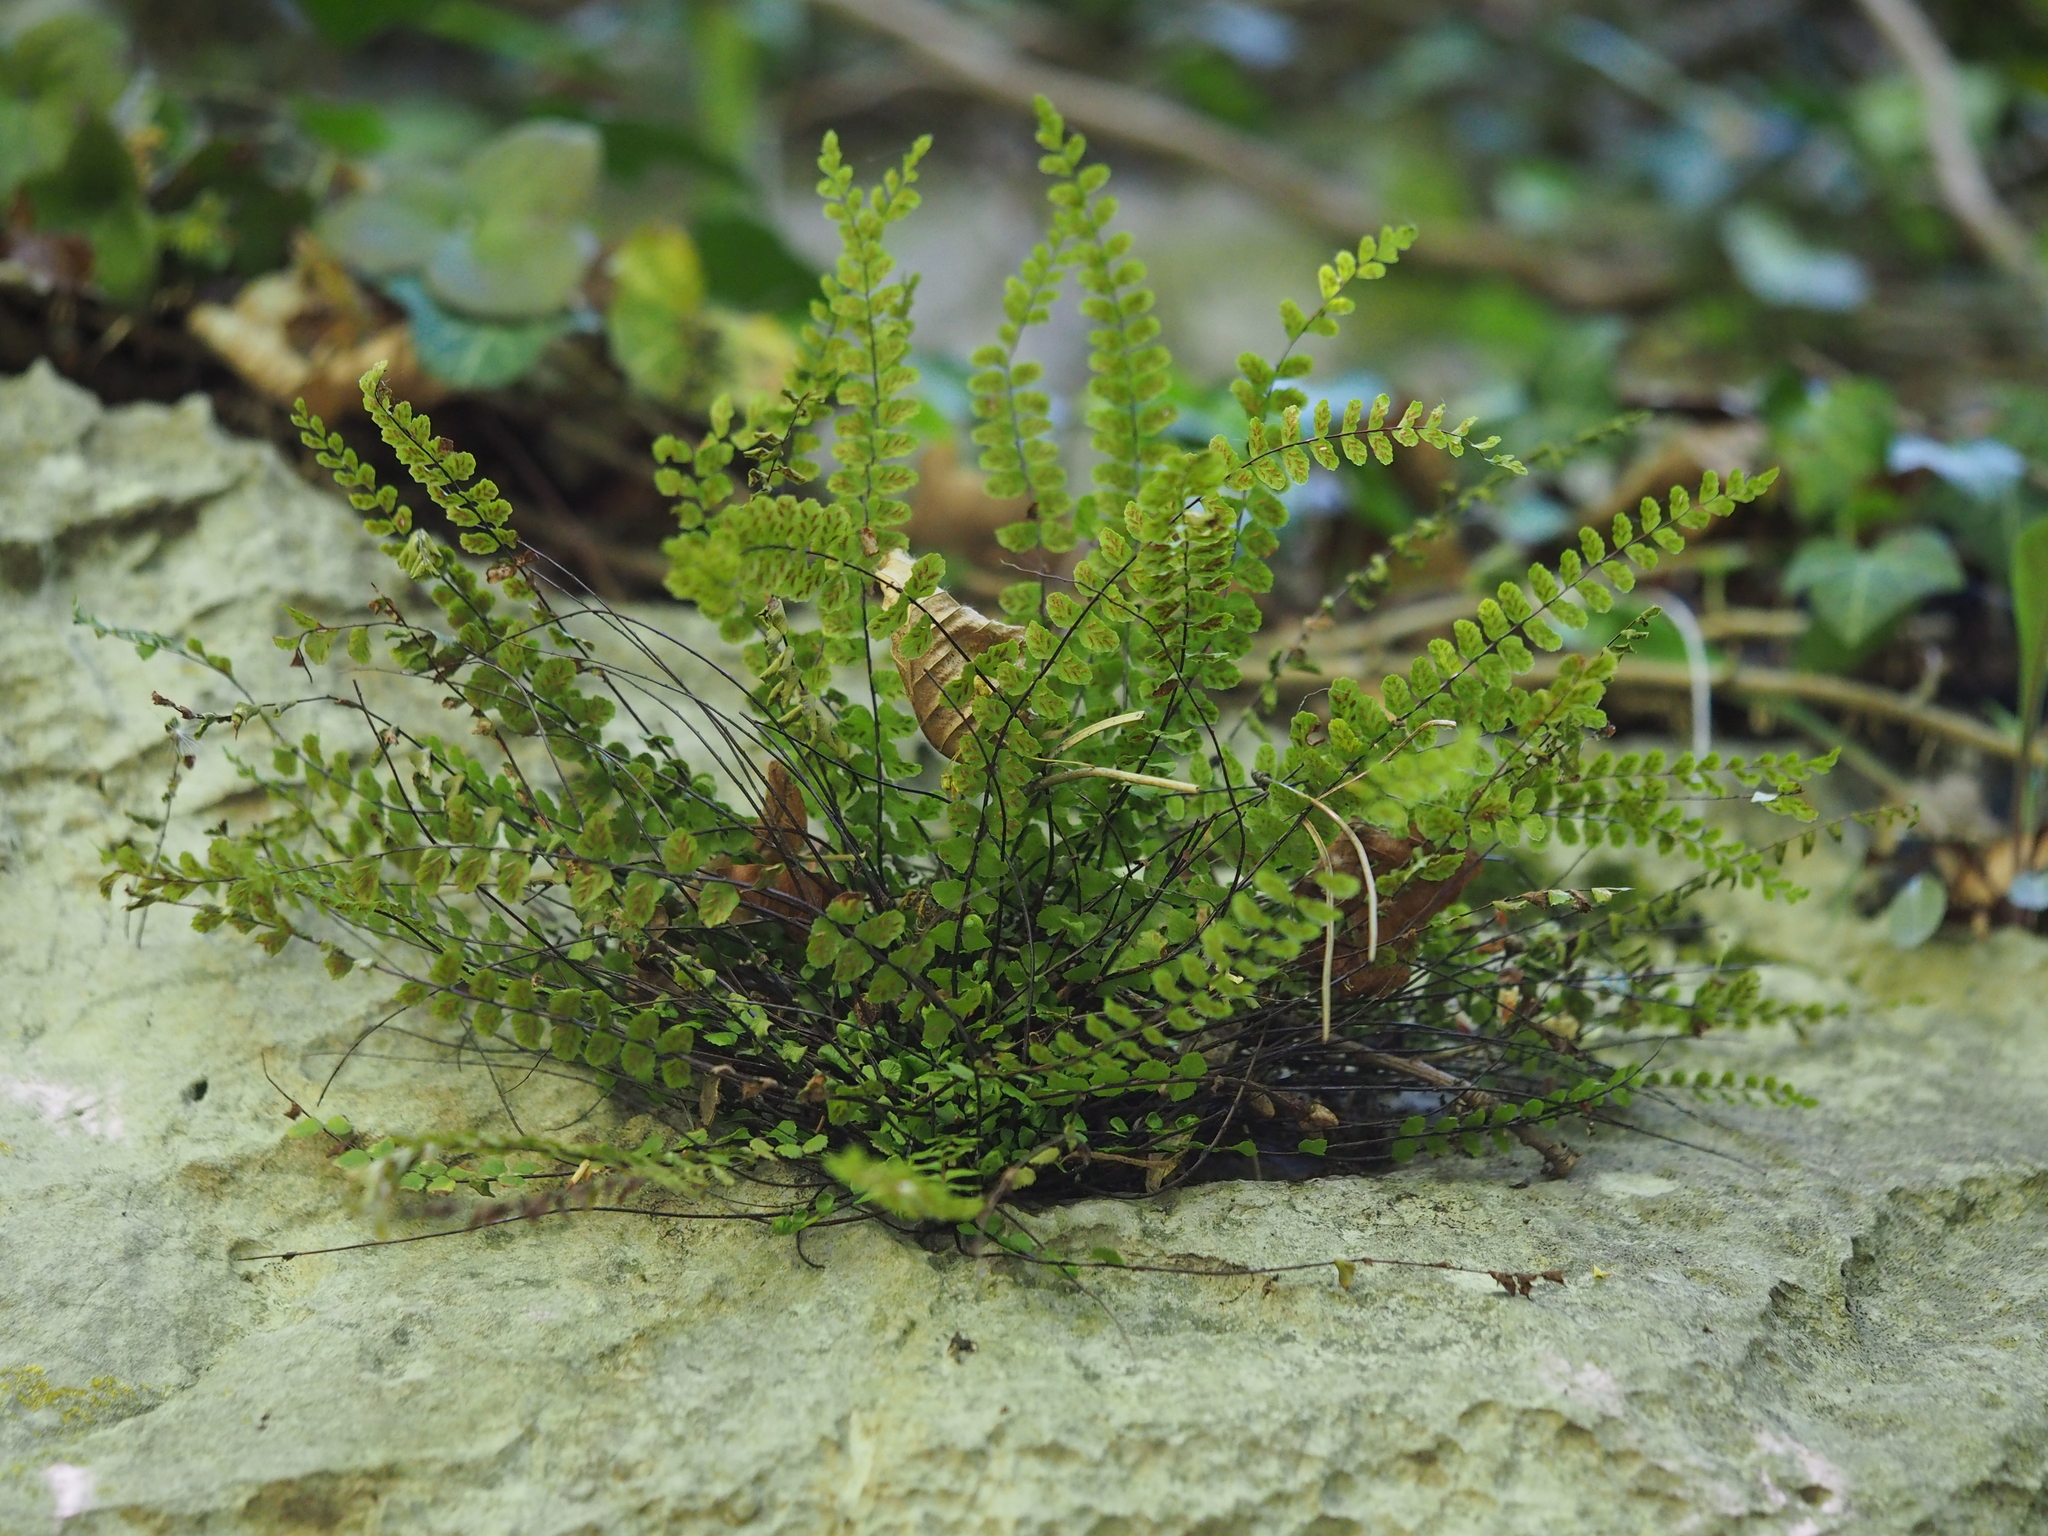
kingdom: Plantae
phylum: Tracheophyta
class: Polypodiopsida
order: Polypodiales
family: Aspleniaceae
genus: Asplenium
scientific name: Asplenium trichomanes
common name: Maidenhair spleenwort
